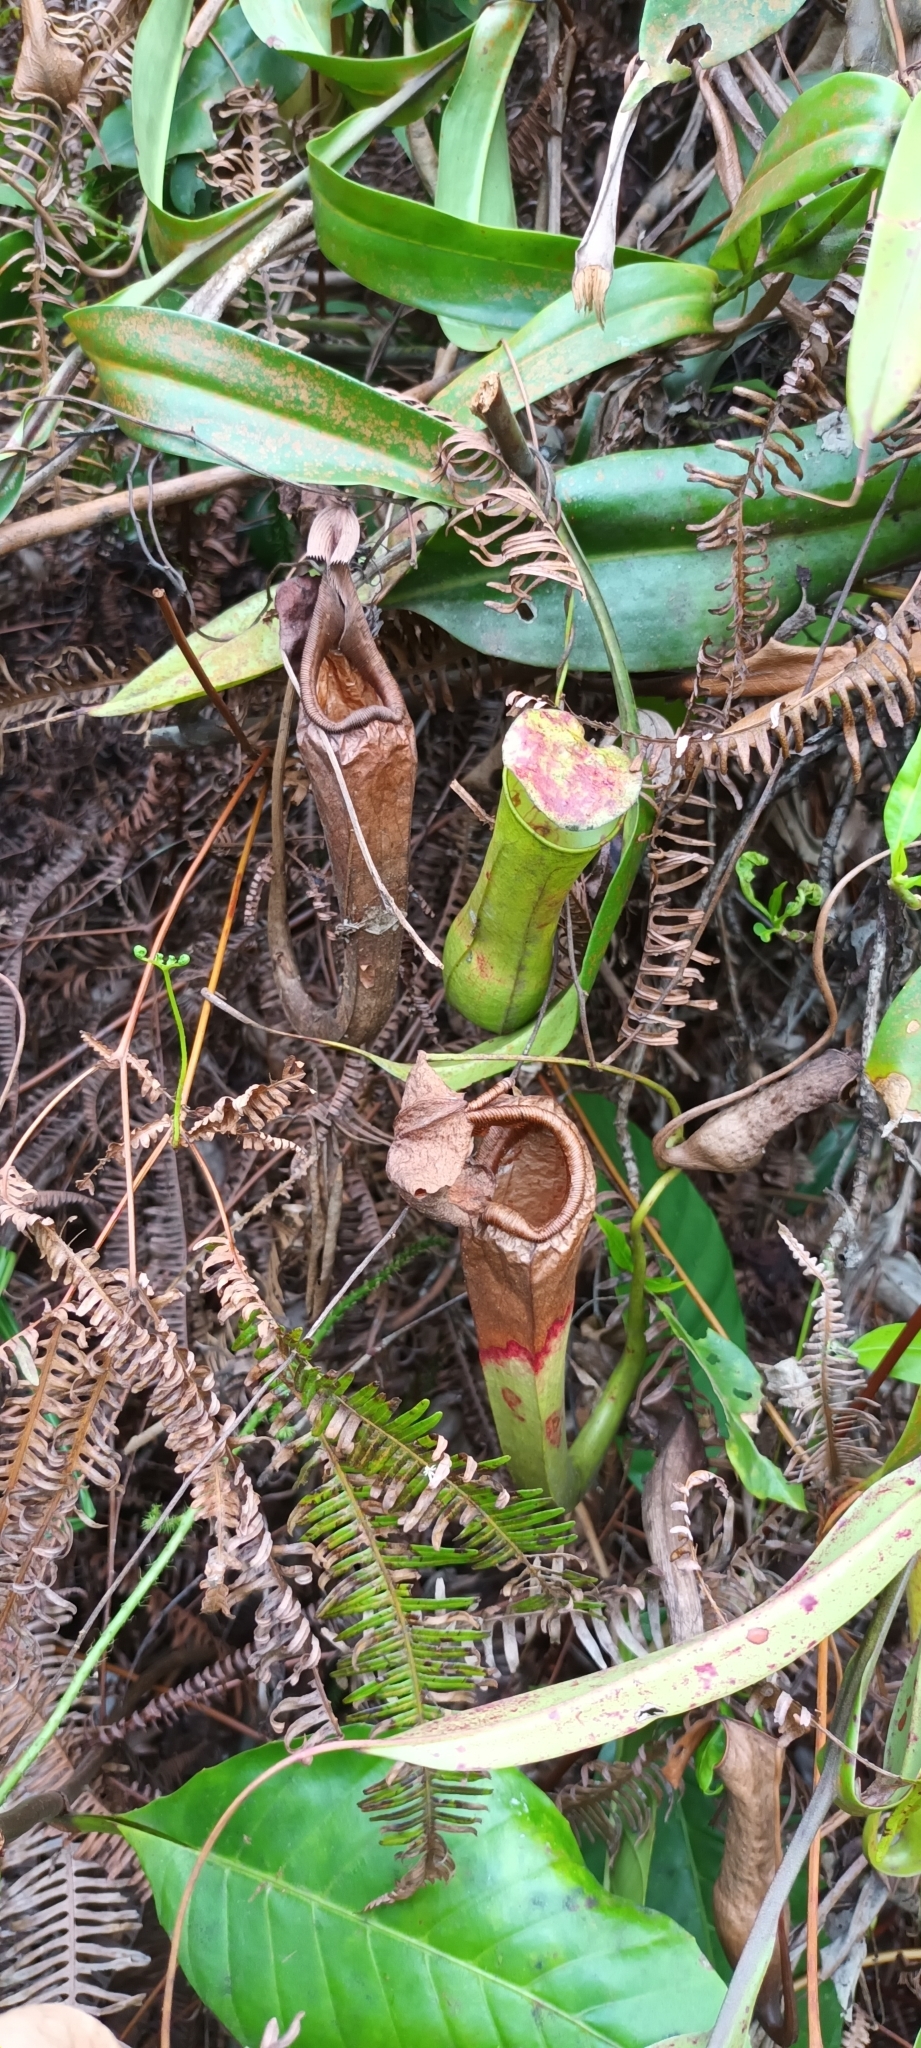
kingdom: Plantae
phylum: Tracheophyta
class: Magnoliopsida
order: Caryophyllales
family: Nepenthaceae
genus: Nepenthes
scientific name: Nepenthes rafflesiana
